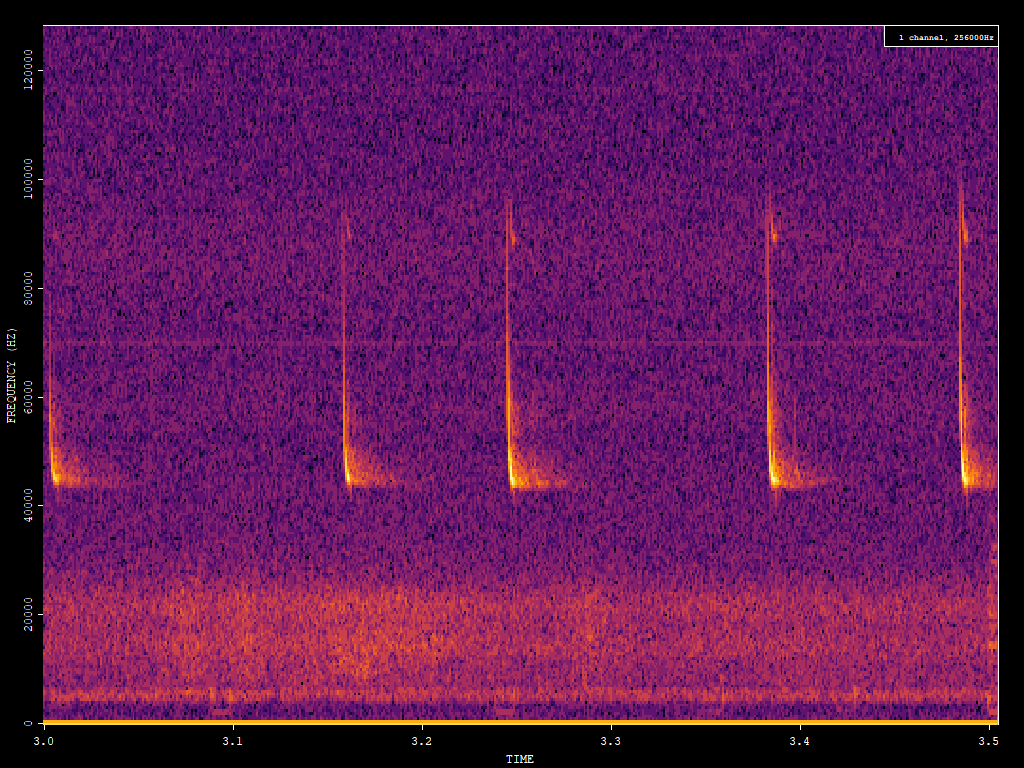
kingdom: Animalia
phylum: Chordata
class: Mammalia
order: Chiroptera
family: Vespertilionidae
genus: Pipistrellus
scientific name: Pipistrellus pipistrellus
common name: Common pipistrelle
